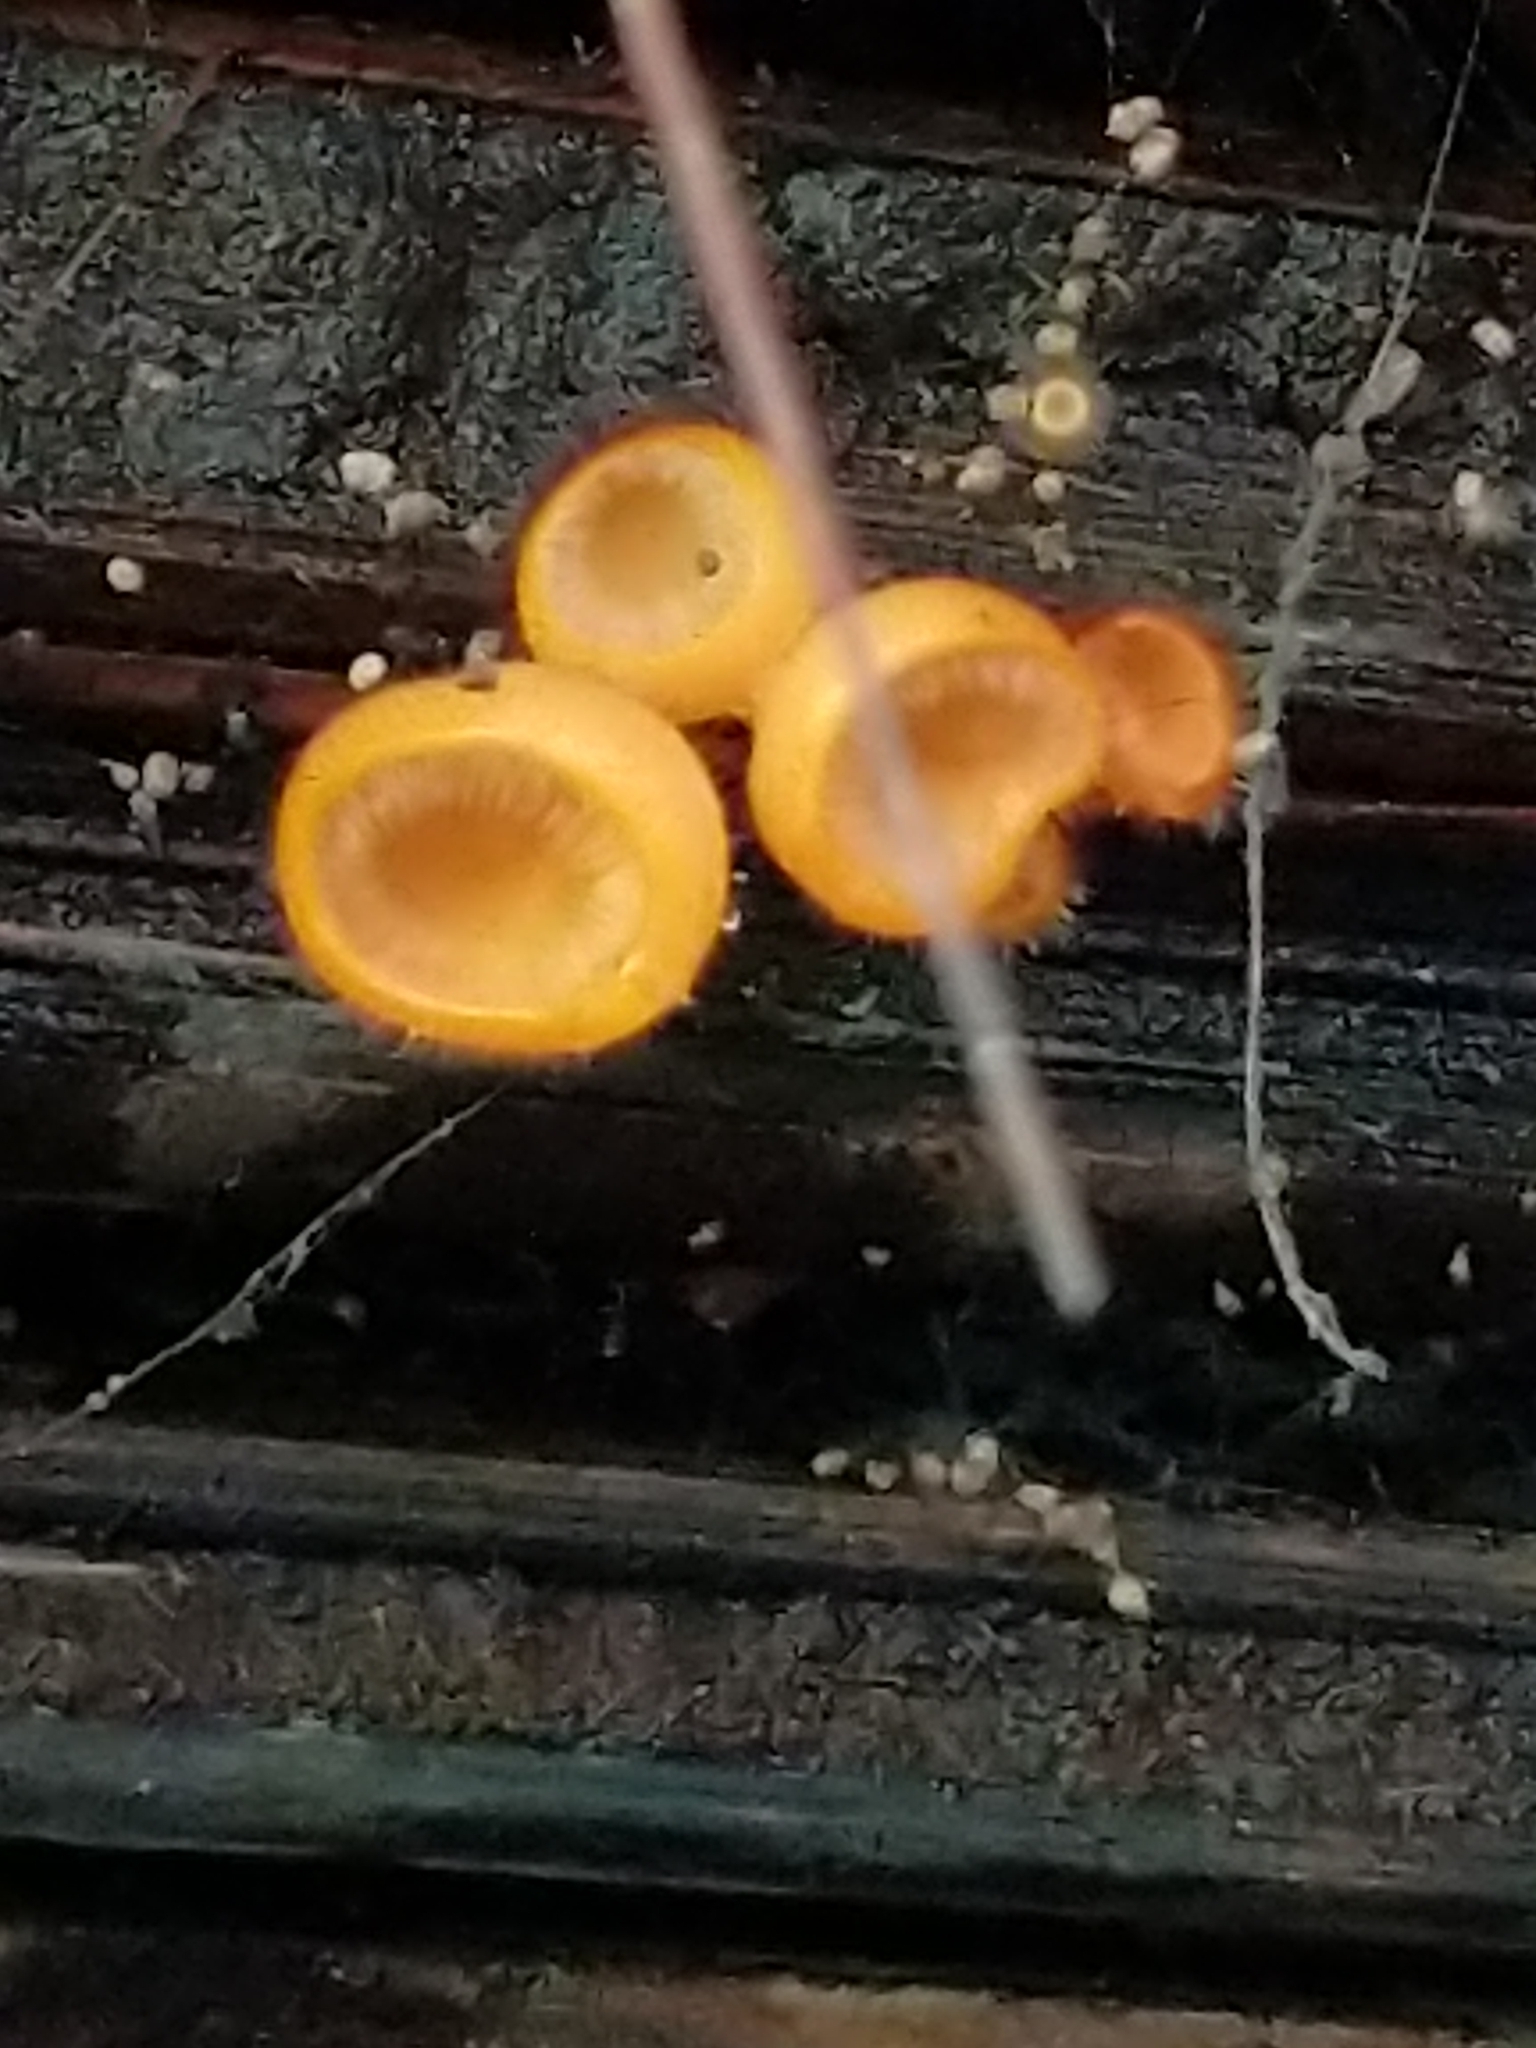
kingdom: Fungi
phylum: Ascomycota
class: Pezizomycetes
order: Pezizales
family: Sarcoscyphaceae
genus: Cookeina
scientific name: Cookeina tricholoma
